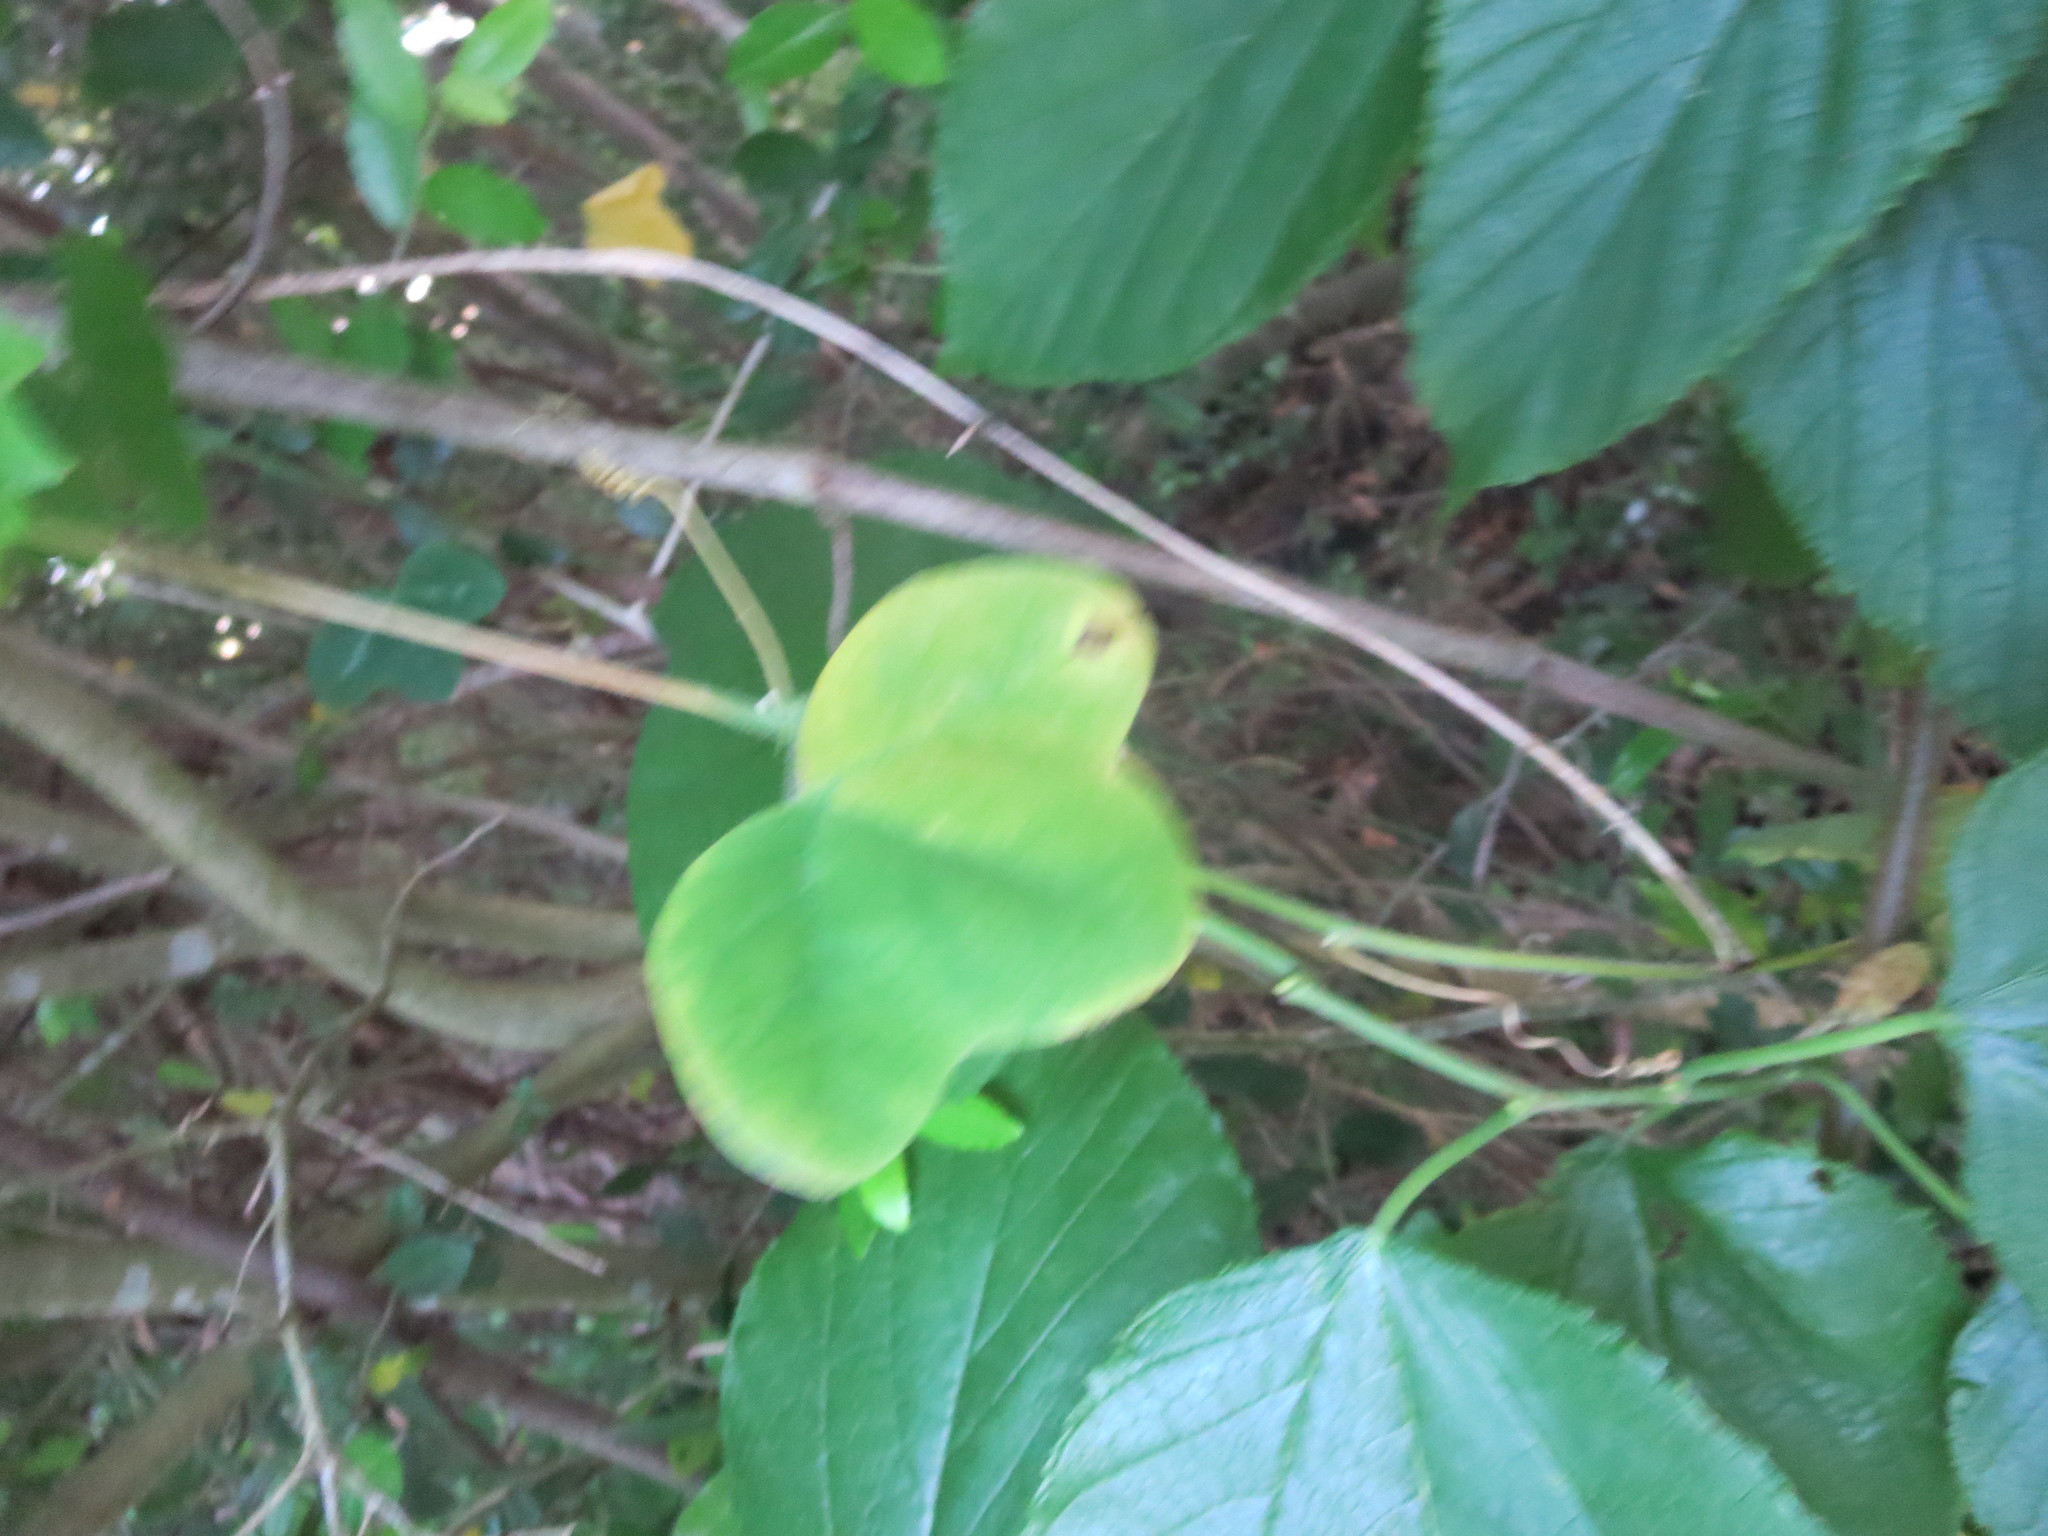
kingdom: Plantae
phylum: Tracheophyta
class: Magnoliopsida
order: Malpighiales
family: Passifloraceae
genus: Passiflora
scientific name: Passiflora lutea
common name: Yellow passionflower
